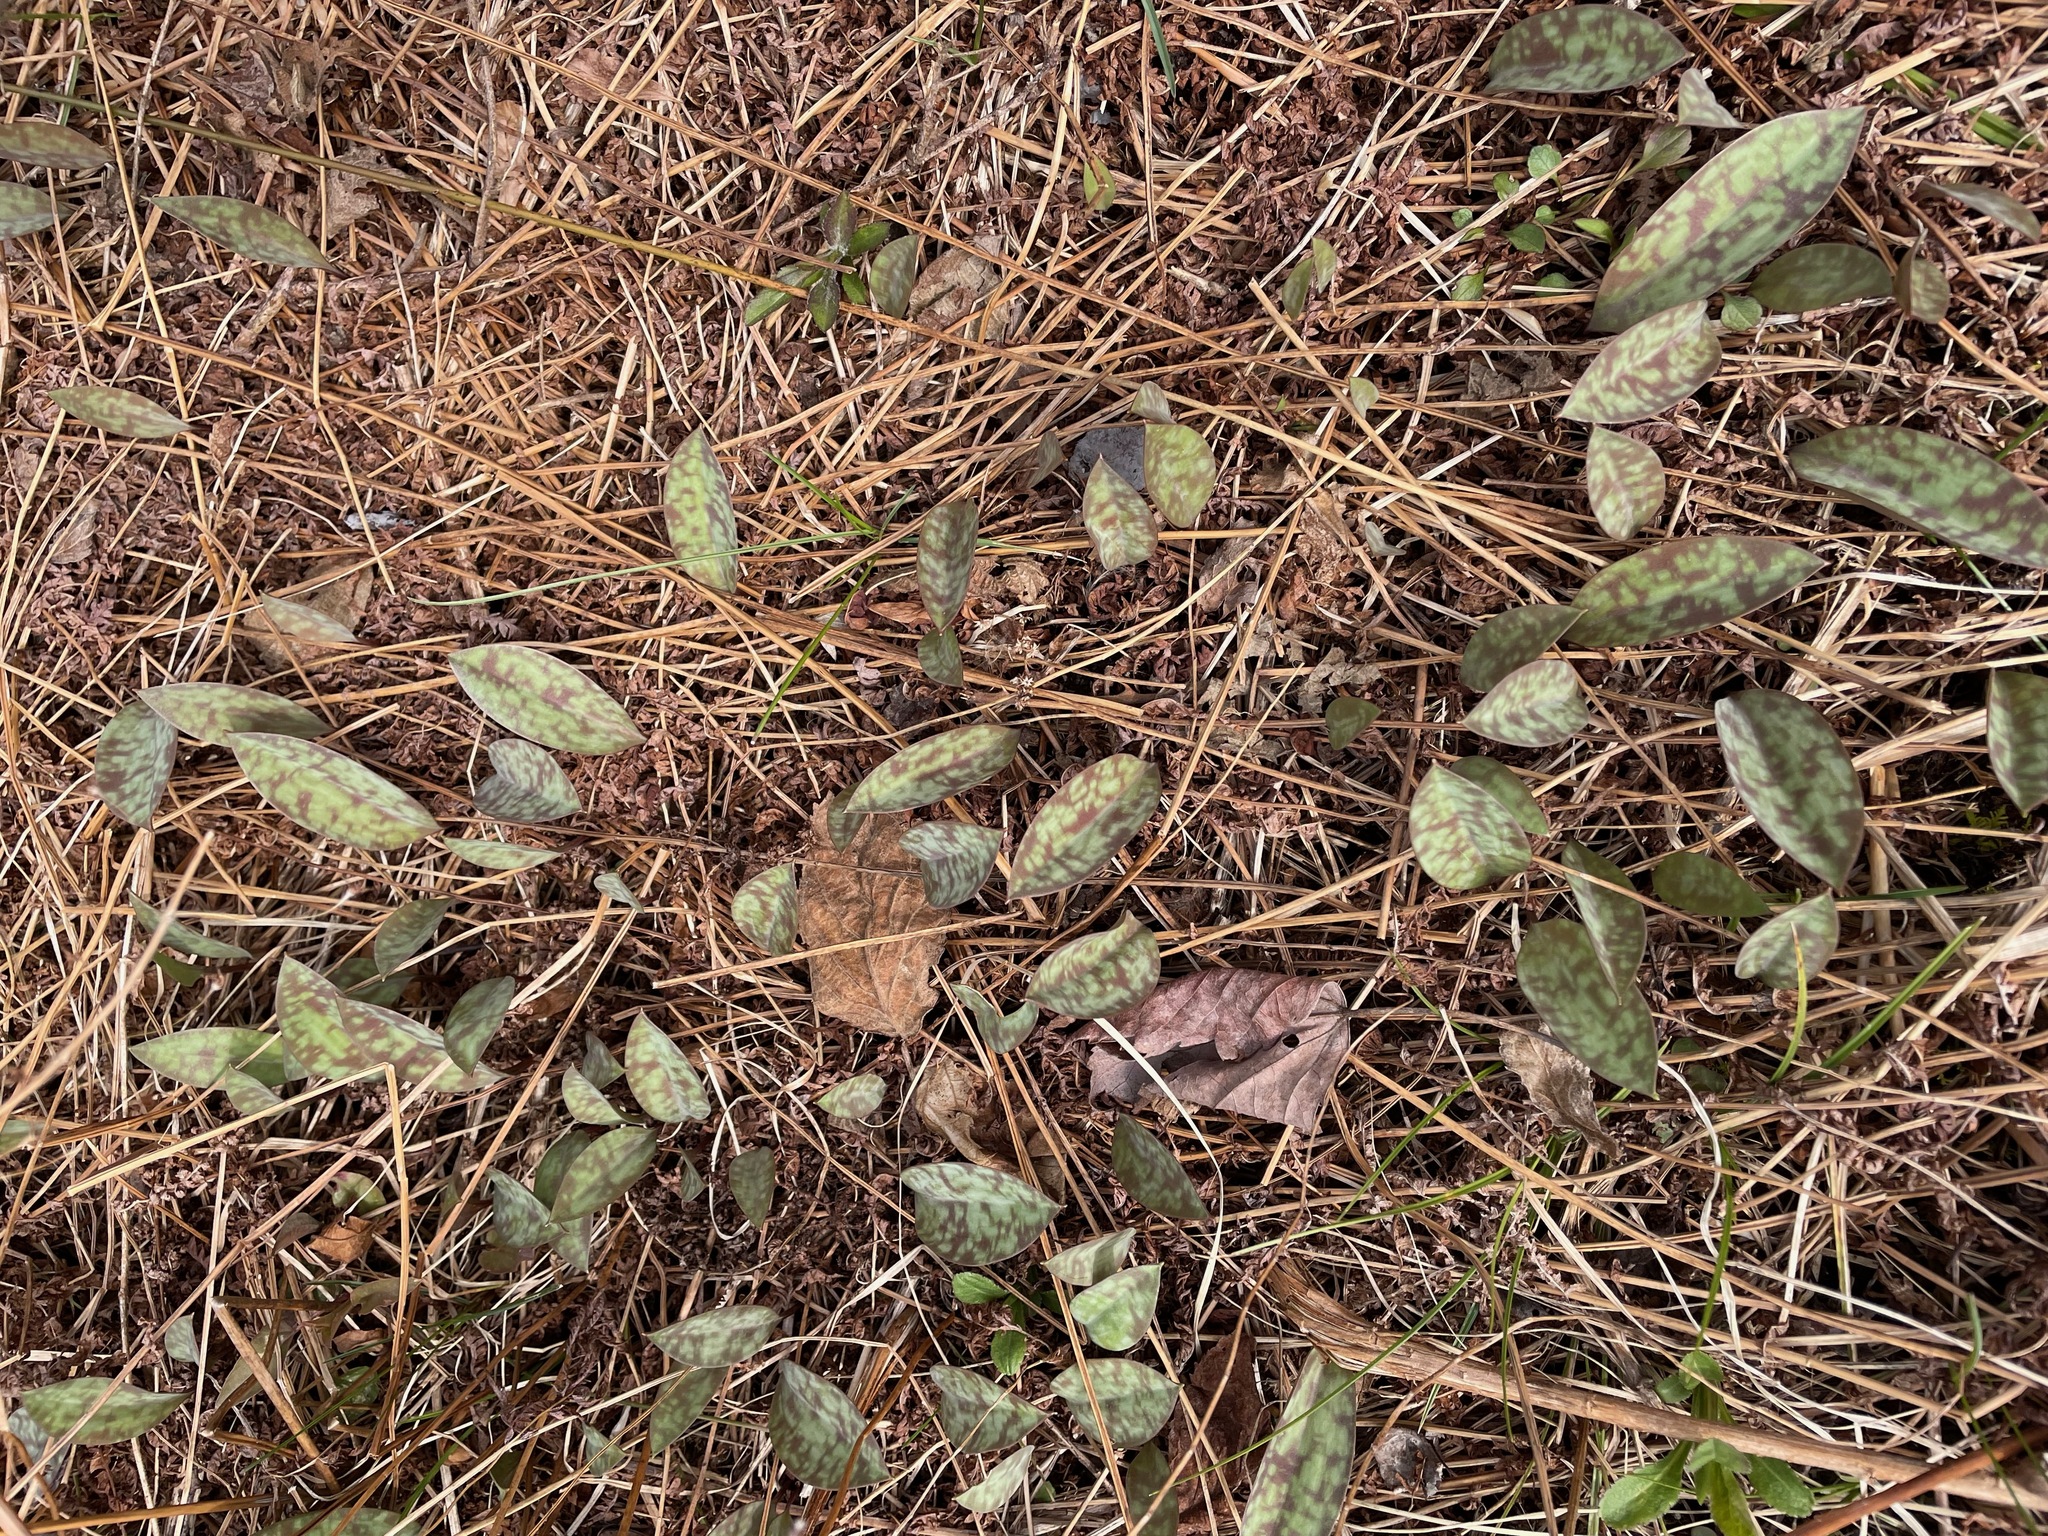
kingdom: Plantae
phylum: Tracheophyta
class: Liliopsida
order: Liliales
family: Liliaceae
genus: Erythronium
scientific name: Erythronium americanum
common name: Yellow adder's-tongue
